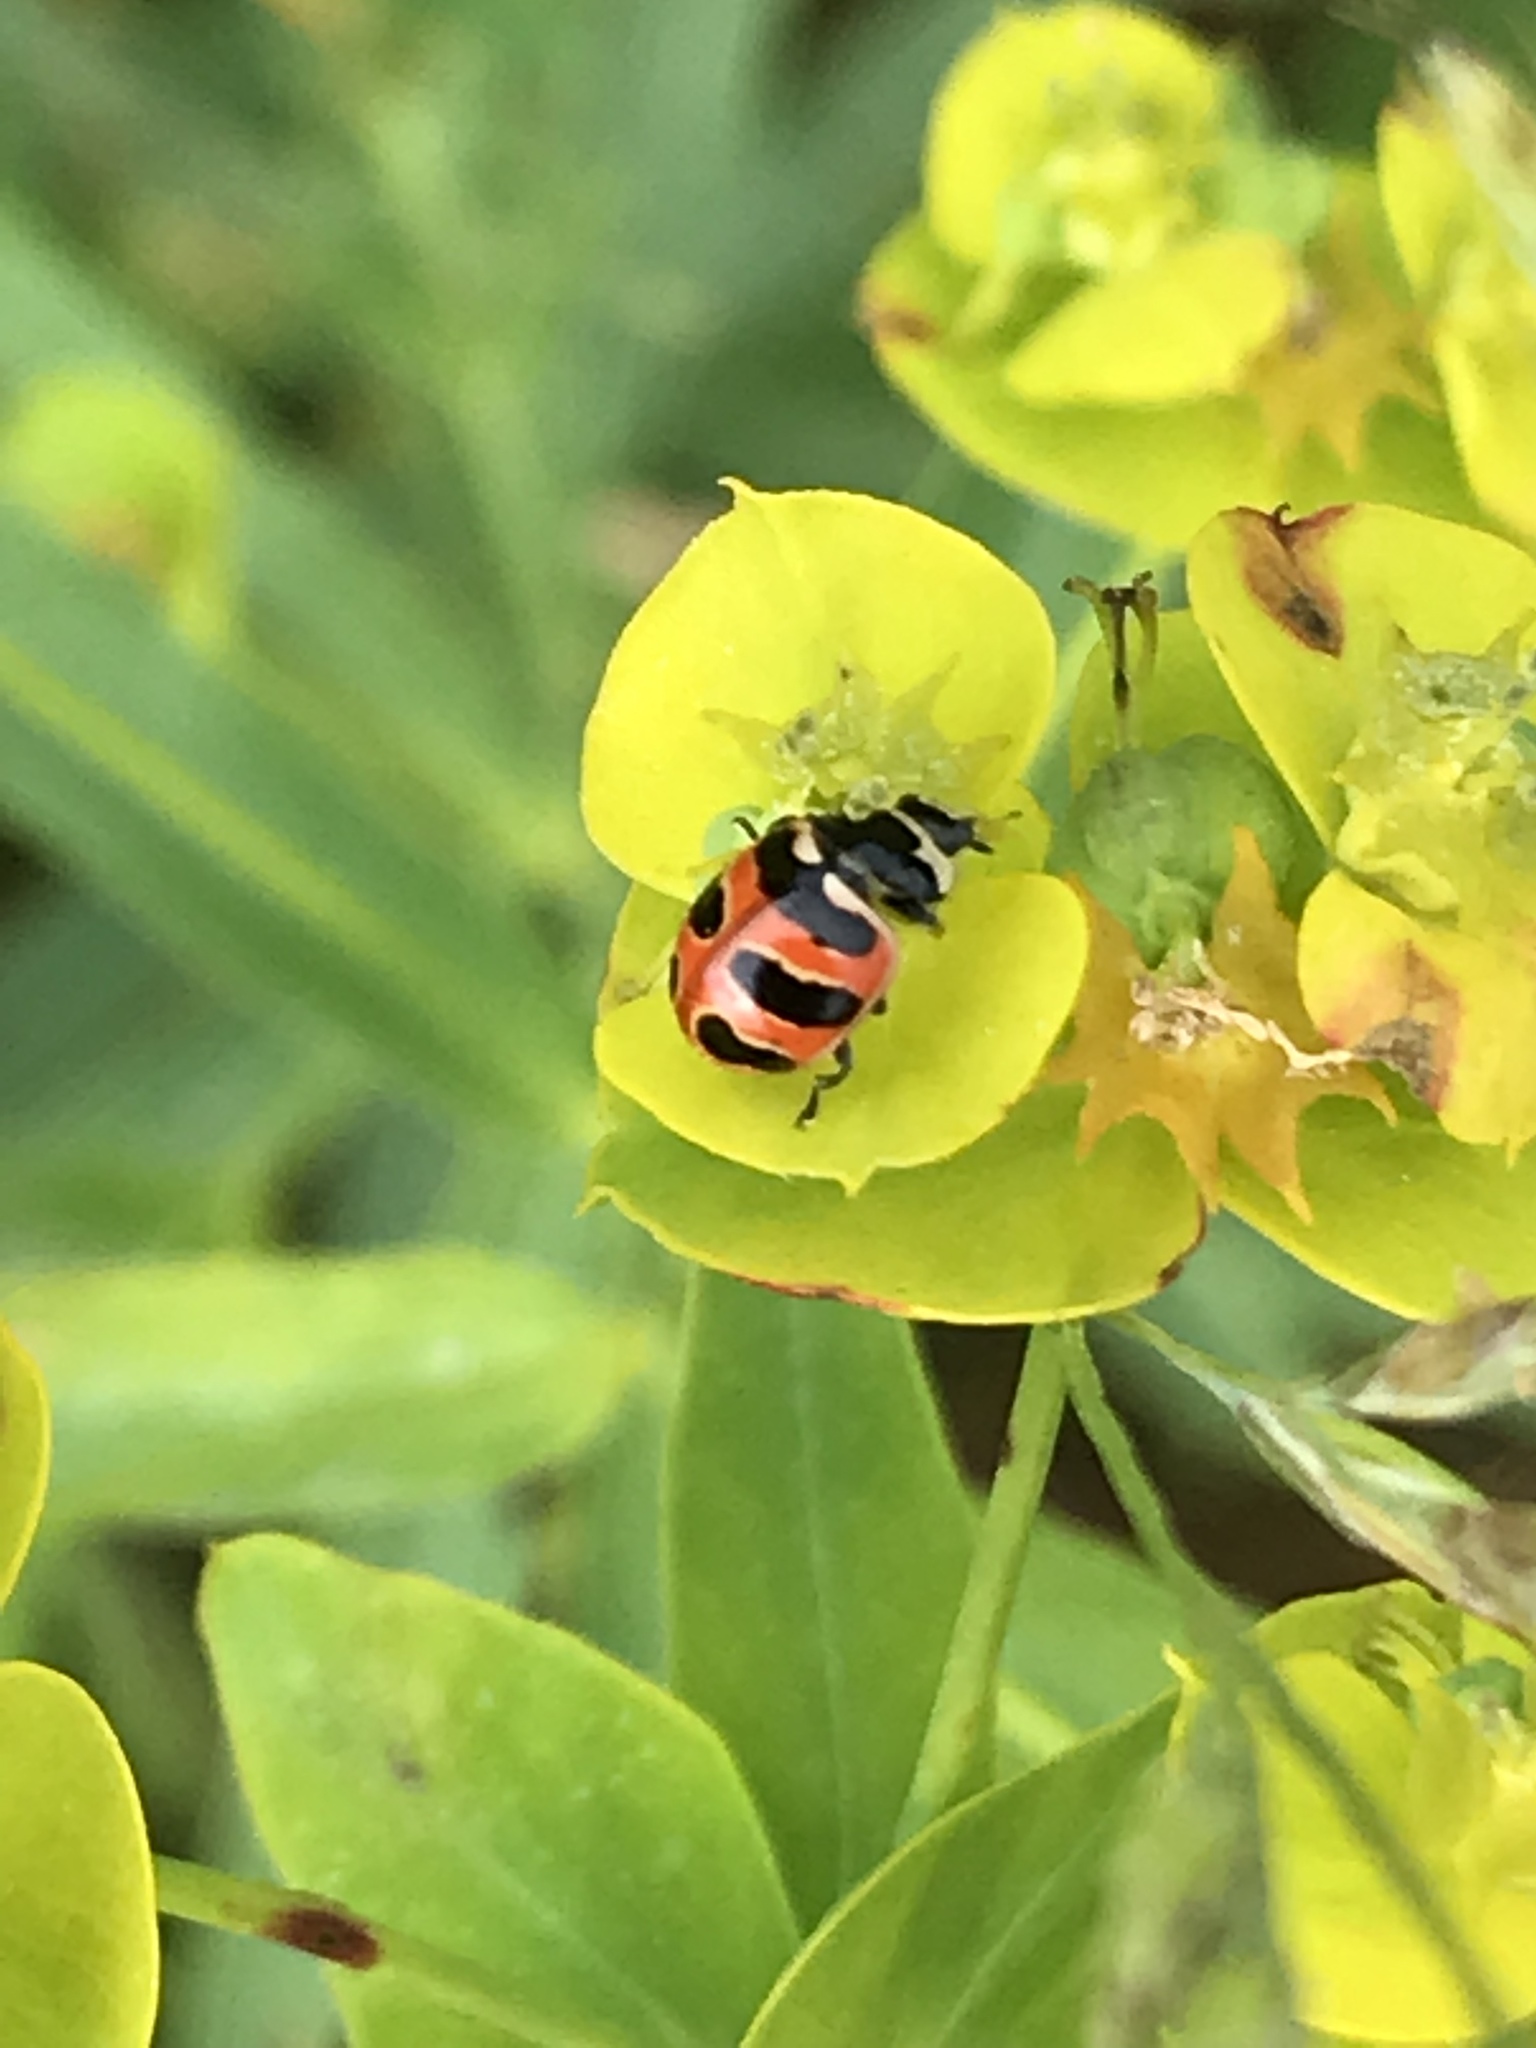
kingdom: Animalia
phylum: Arthropoda
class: Insecta
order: Coleoptera
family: Coccinellidae
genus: Coccinella
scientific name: Coccinella trifasciata
